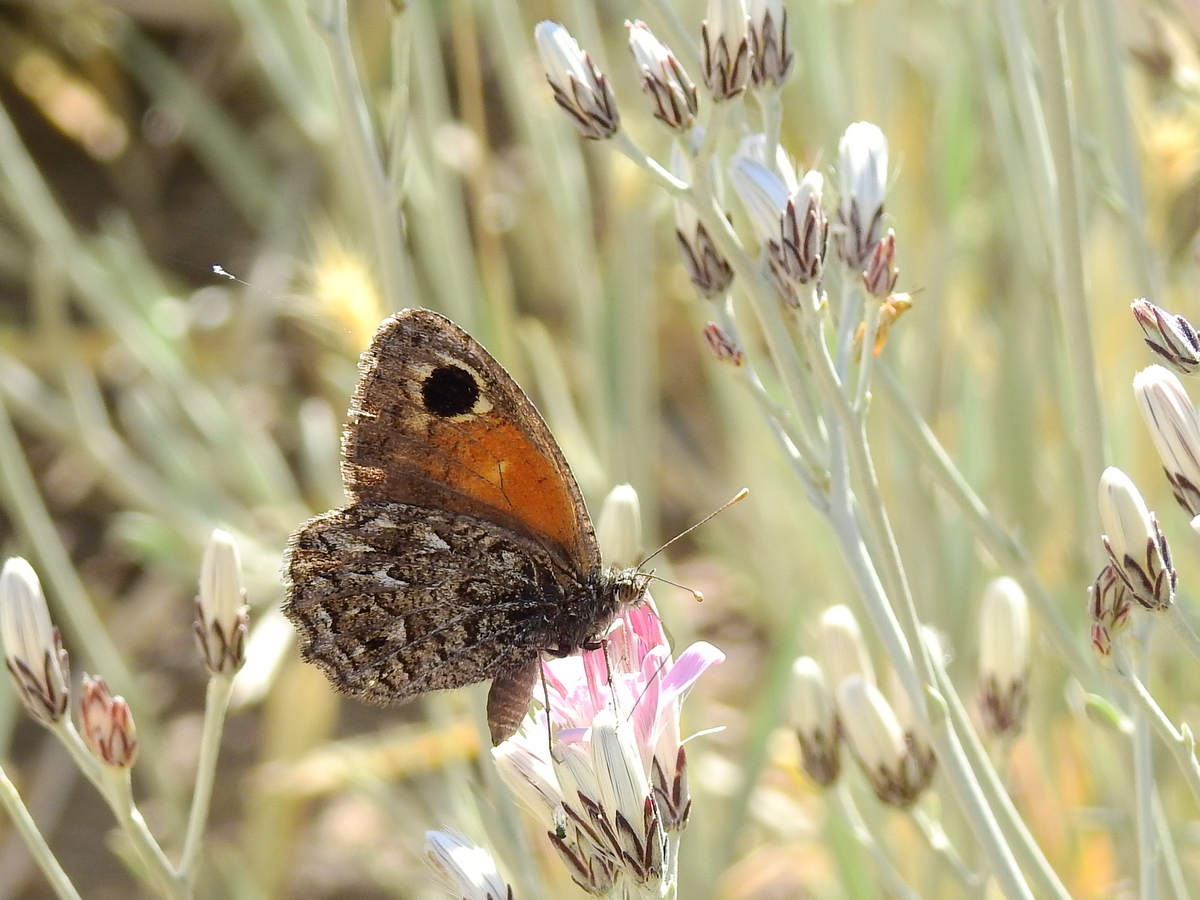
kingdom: Animalia
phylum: Arthropoda
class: Insecta
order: Lepidoptera
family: Nymphalidae
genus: Argyrophorus
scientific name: Argyrophorus
